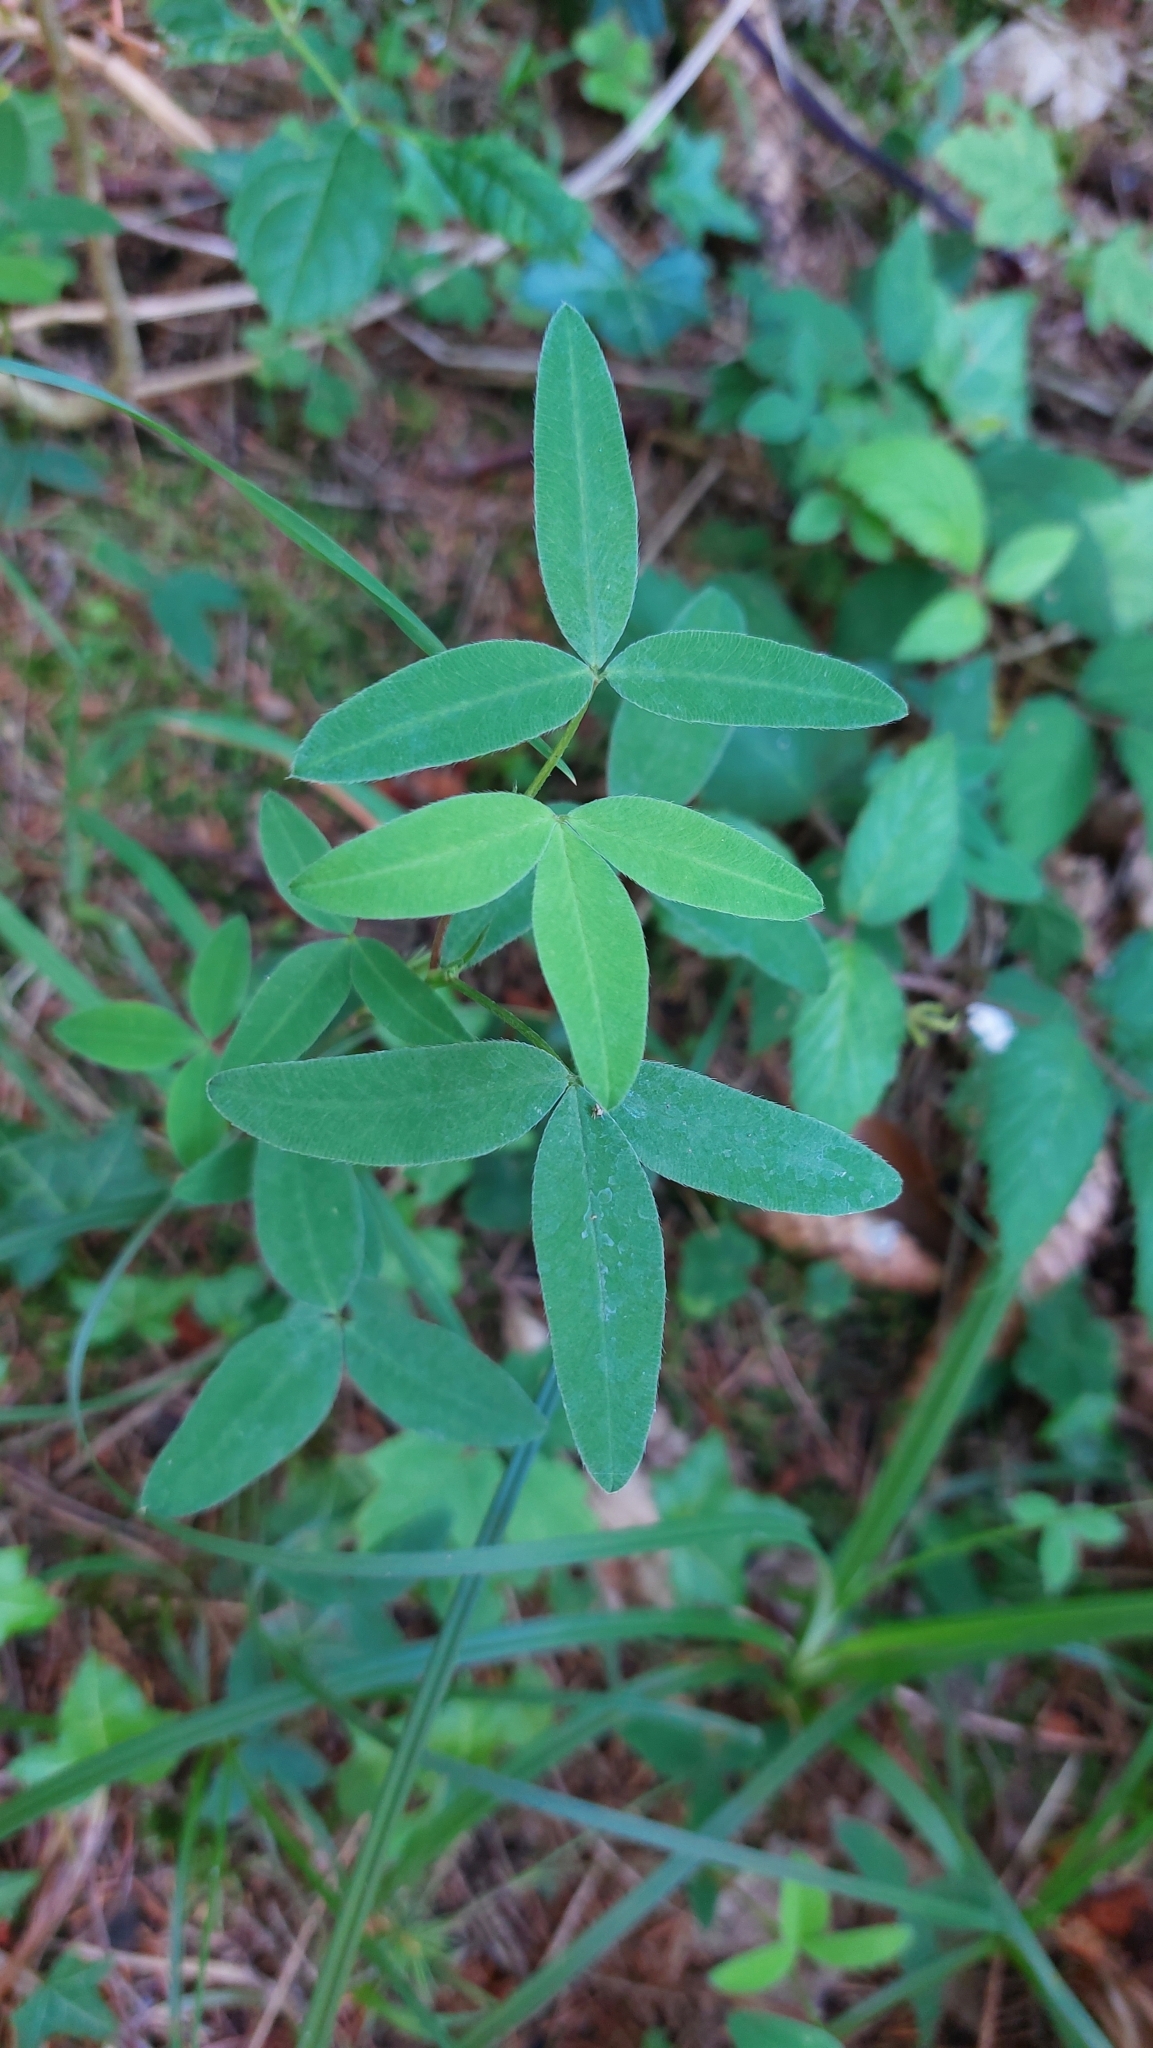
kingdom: Plantae
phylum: Tracheophyta
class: Magnoliopsida
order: Fabales
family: Fabaceae
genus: Trifolium
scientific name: Trifolium medium
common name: Zigzag clover
